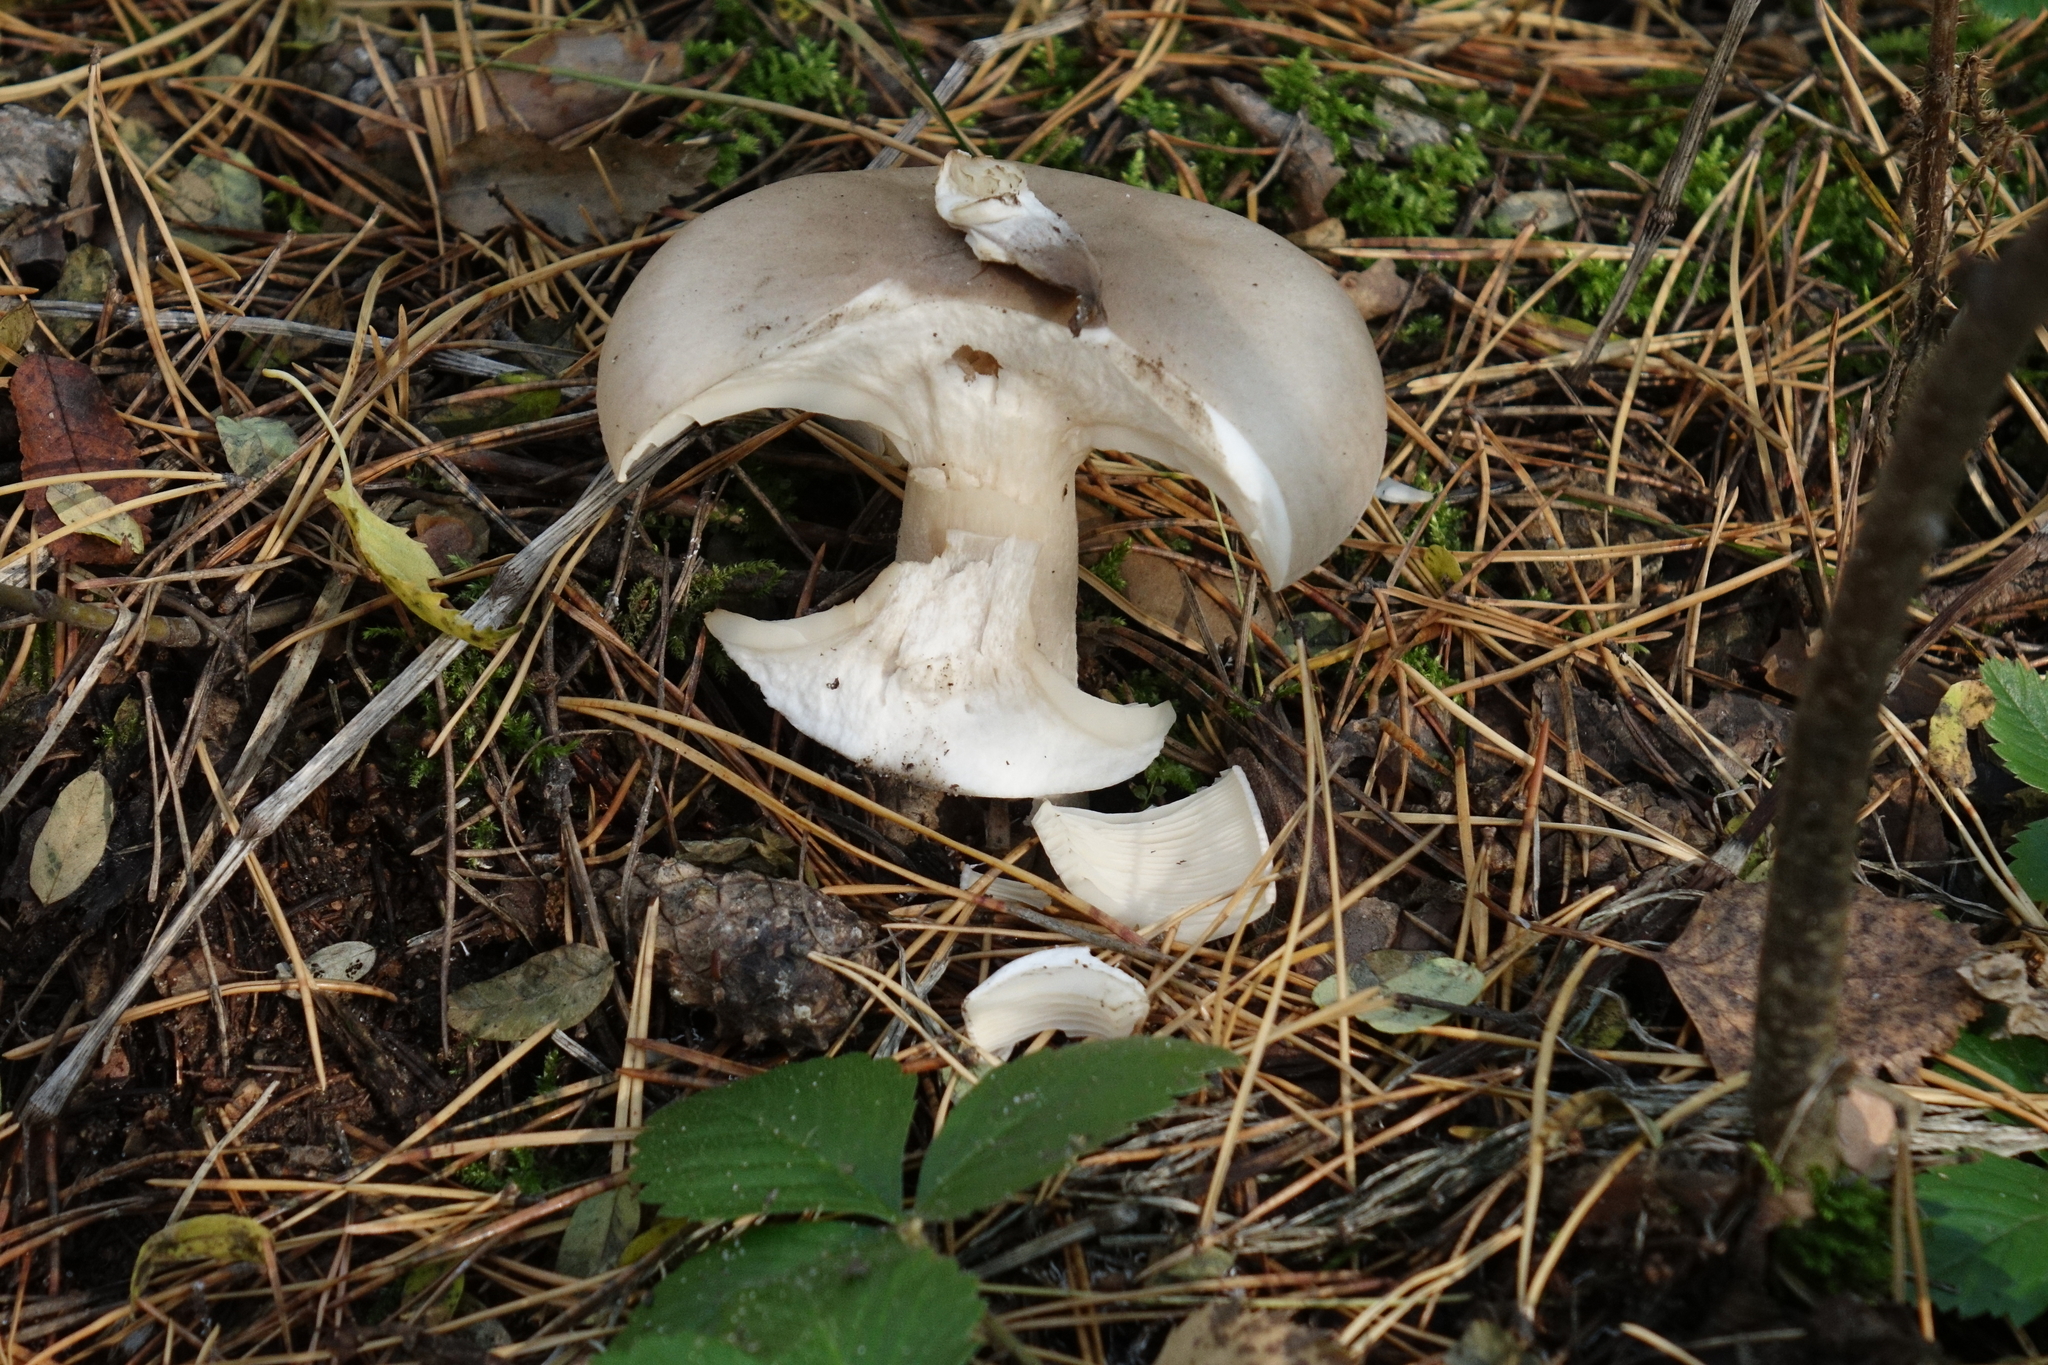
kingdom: Fungi
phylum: Basidiomycota
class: Agaricomycetes
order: Agaricales
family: Tricholomataceae
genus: Clitocybe
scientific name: Clitocybe nebularis
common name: Clouded agaric
